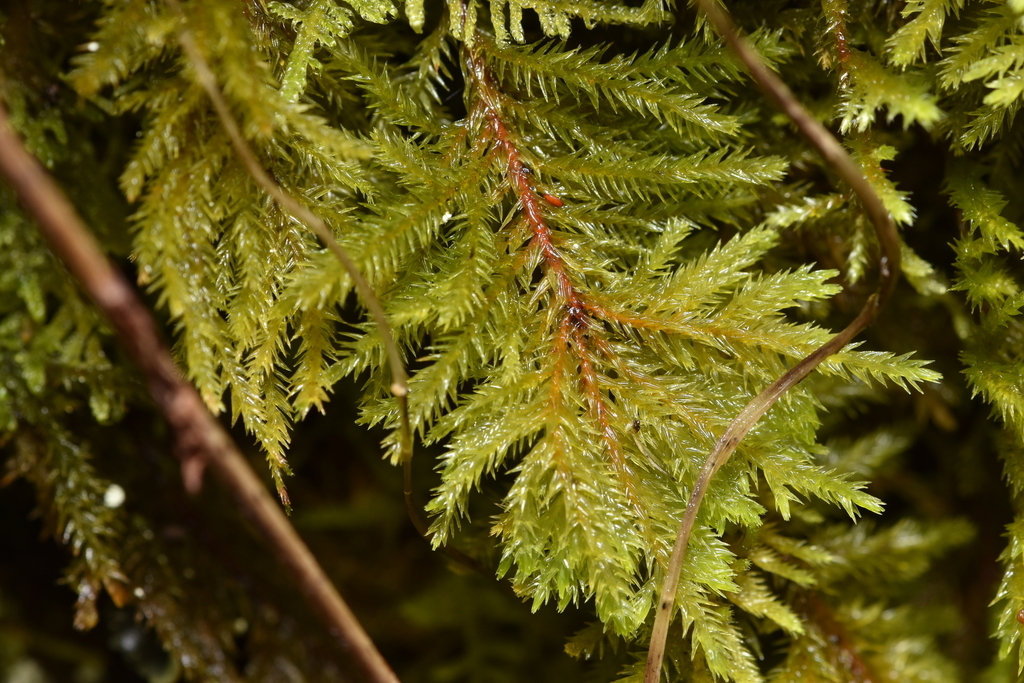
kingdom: Plantae
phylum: Bryophyta
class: Bryopsida
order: Hypnales
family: Cryphaeaceae
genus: Dendroalsia
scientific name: Dendroalsia abietina
